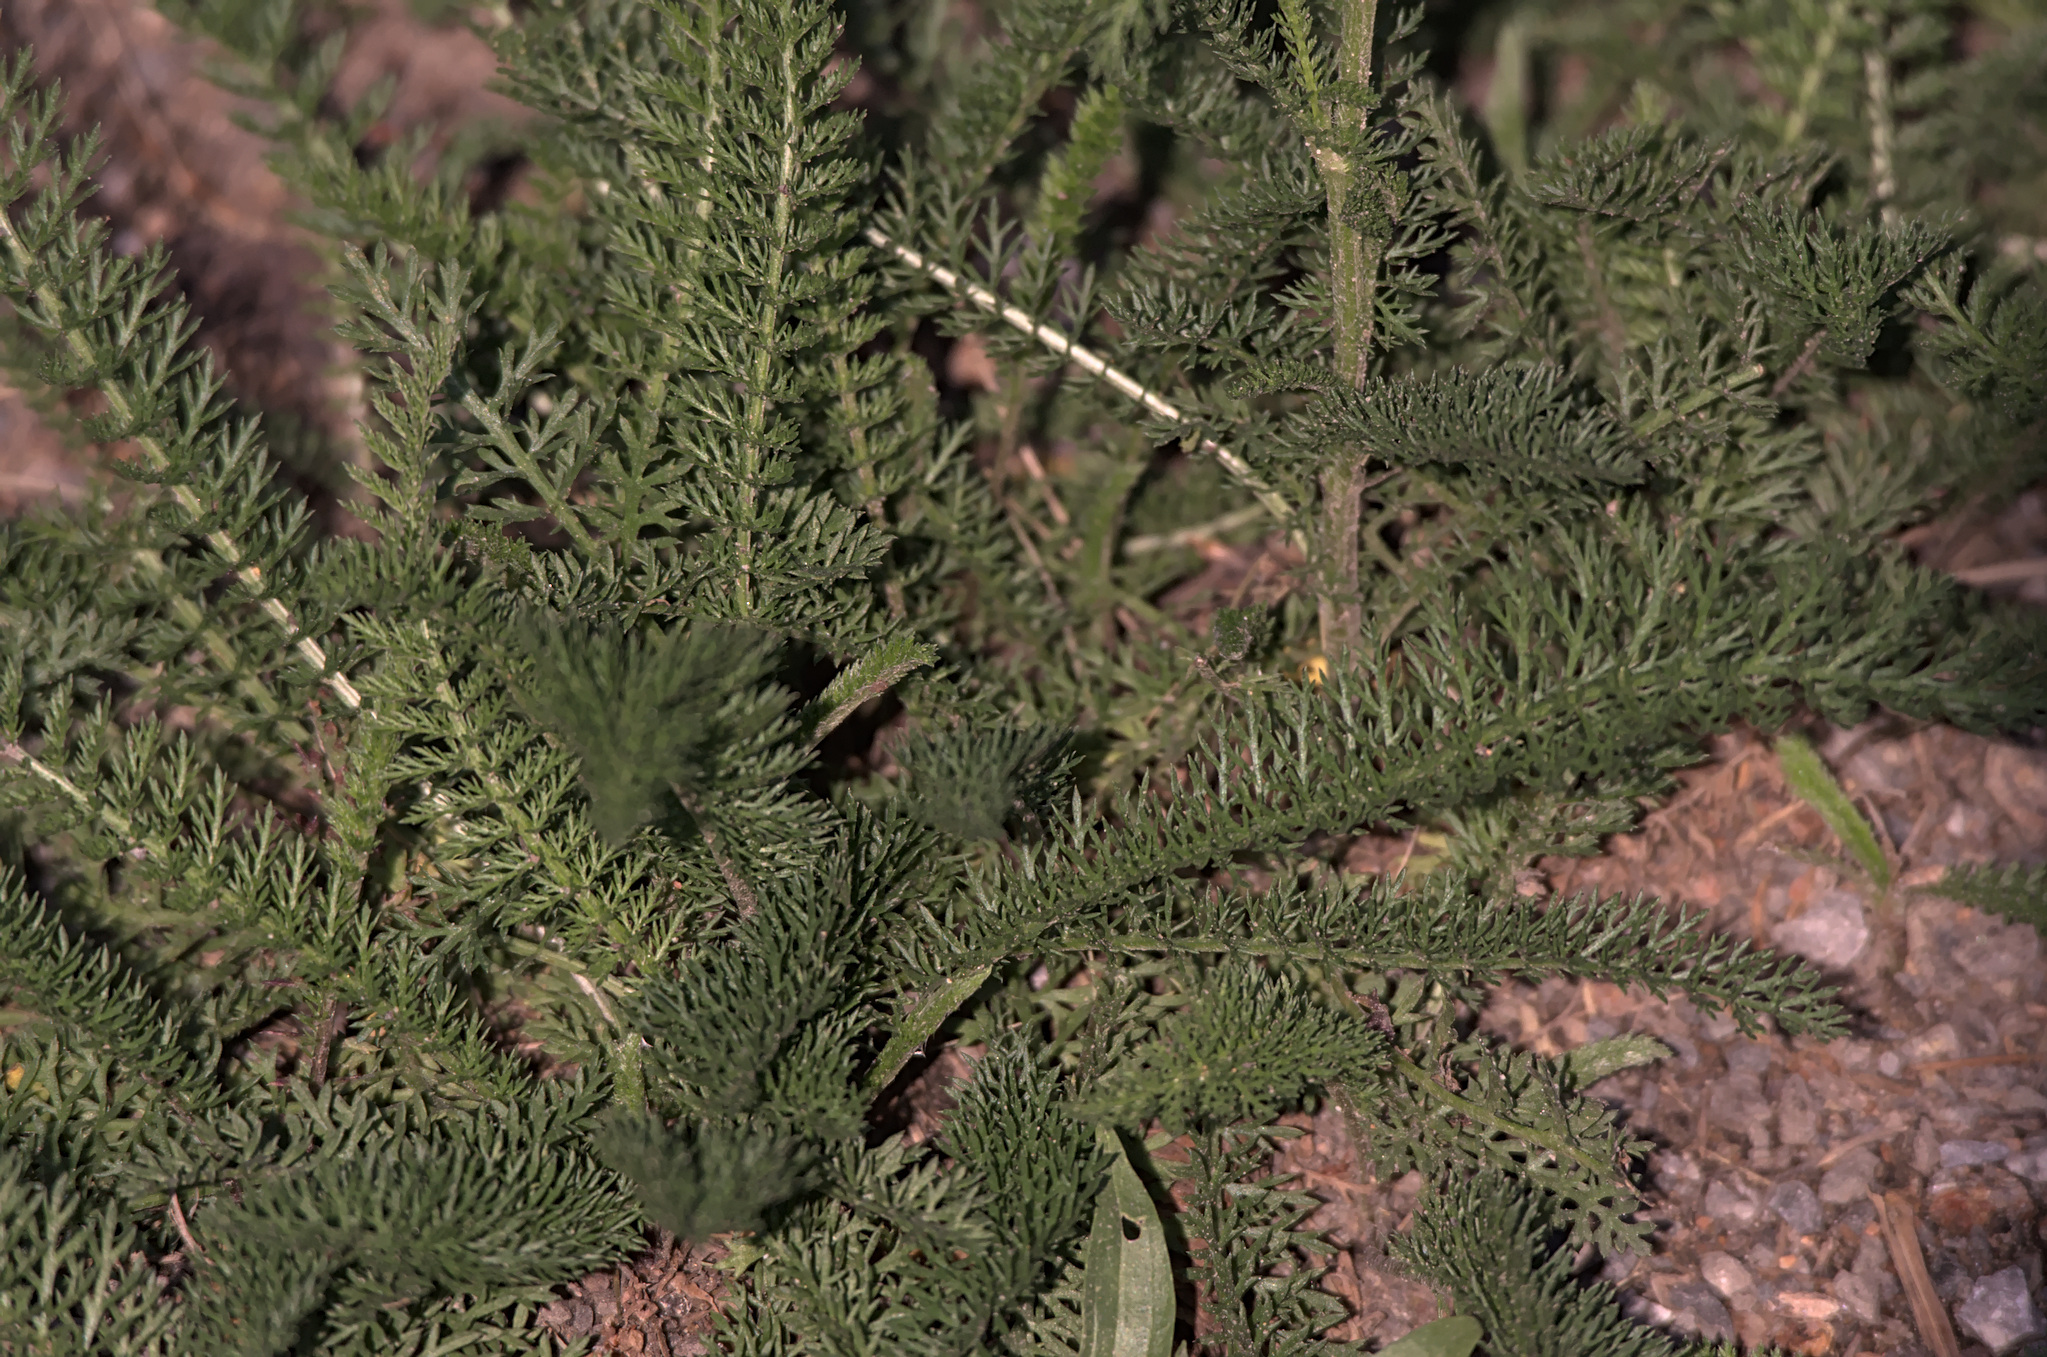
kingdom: Plantae
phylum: Tracheophyta
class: Magnoliopsida
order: Asterales
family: Asteraceae
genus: Achillea
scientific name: Achillea millefolium
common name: Yarrow
